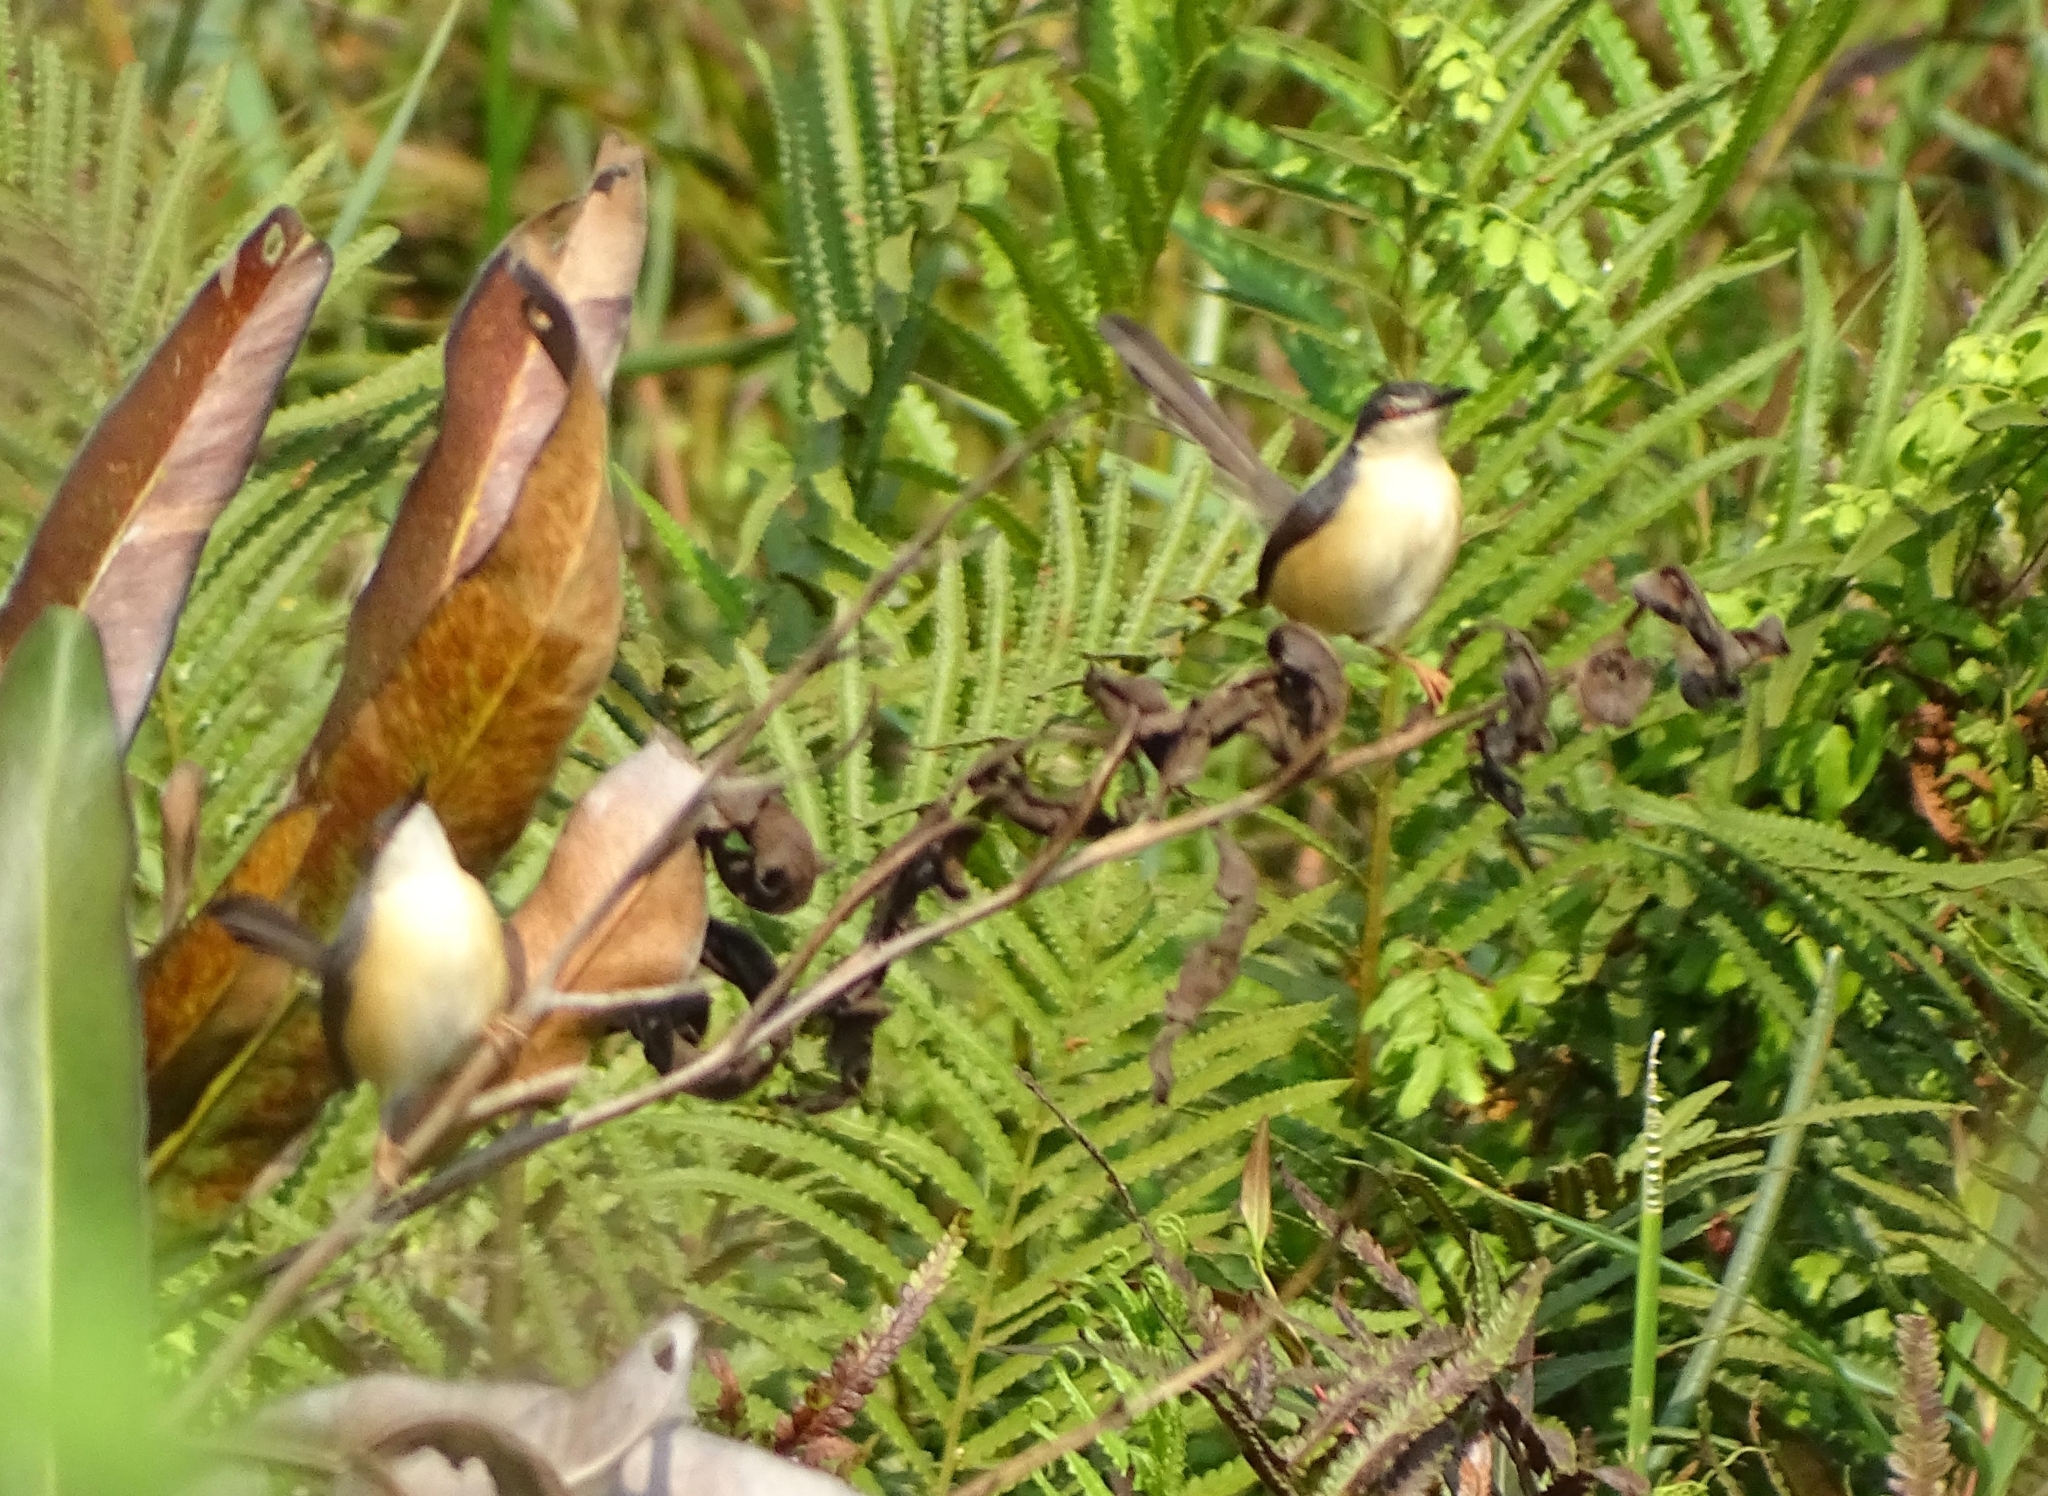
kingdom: Animalia
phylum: Chordata
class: Aves
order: Passeriformes
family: Cisticolidae
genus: Prinia
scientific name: Prinia socialis
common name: Ashy prinia
